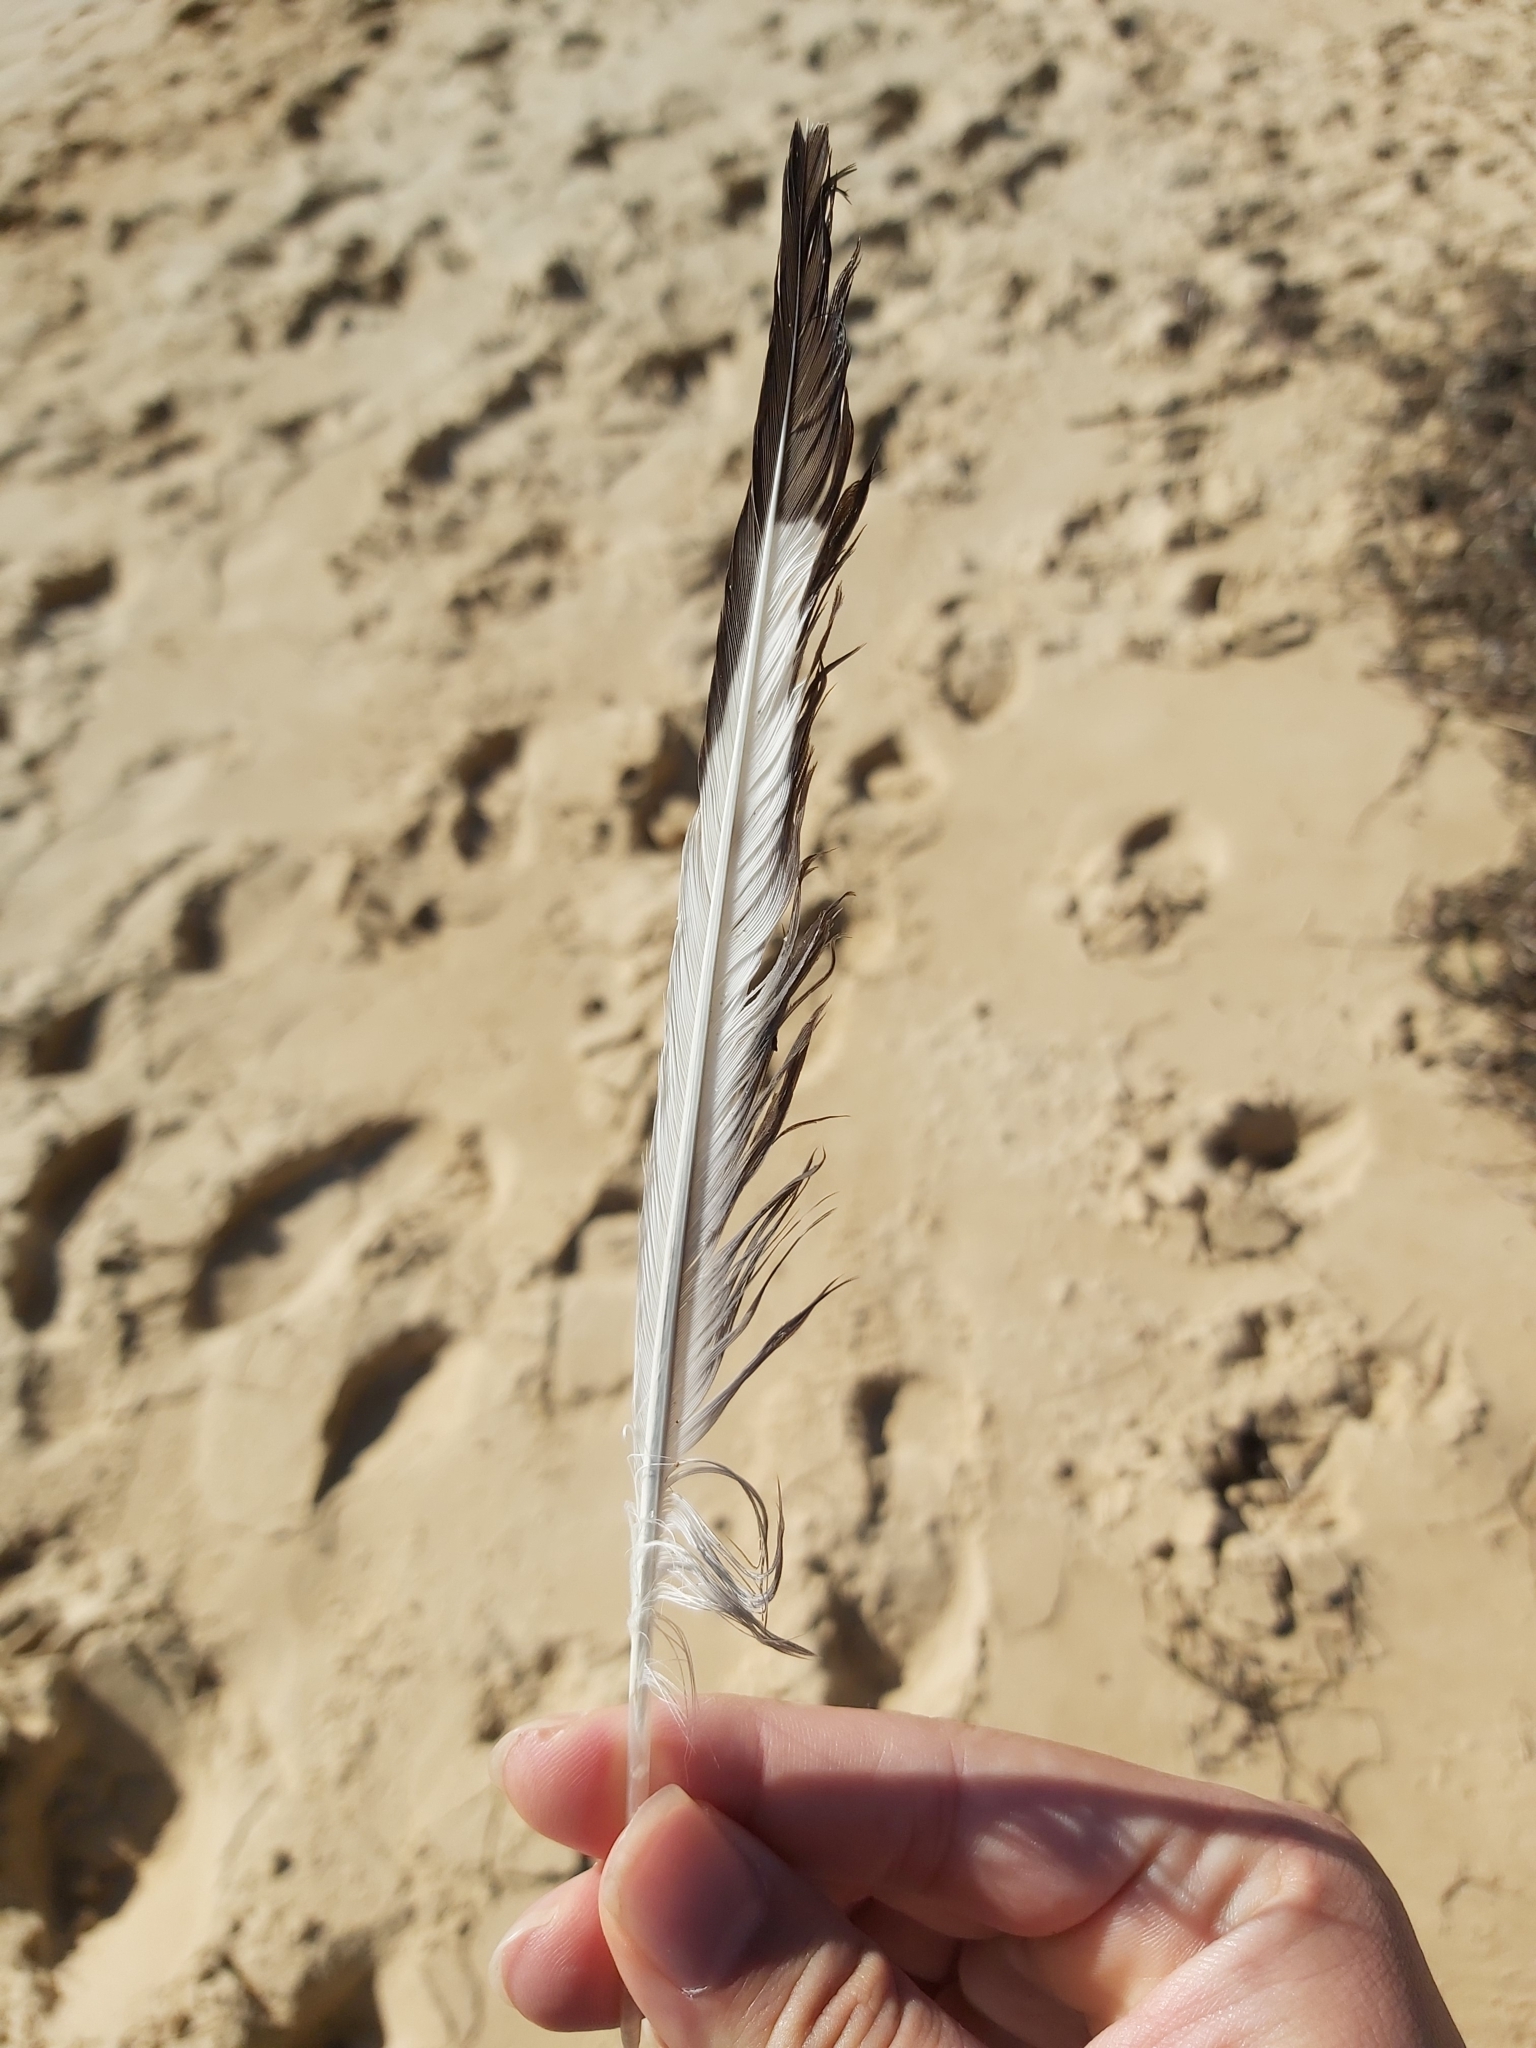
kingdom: Animalia
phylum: Chordata
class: Aves
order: Charadriiformes
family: Laridae
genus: Chroicocephalus
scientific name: Chroicocephalus novaehollandiae
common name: Silver gull
